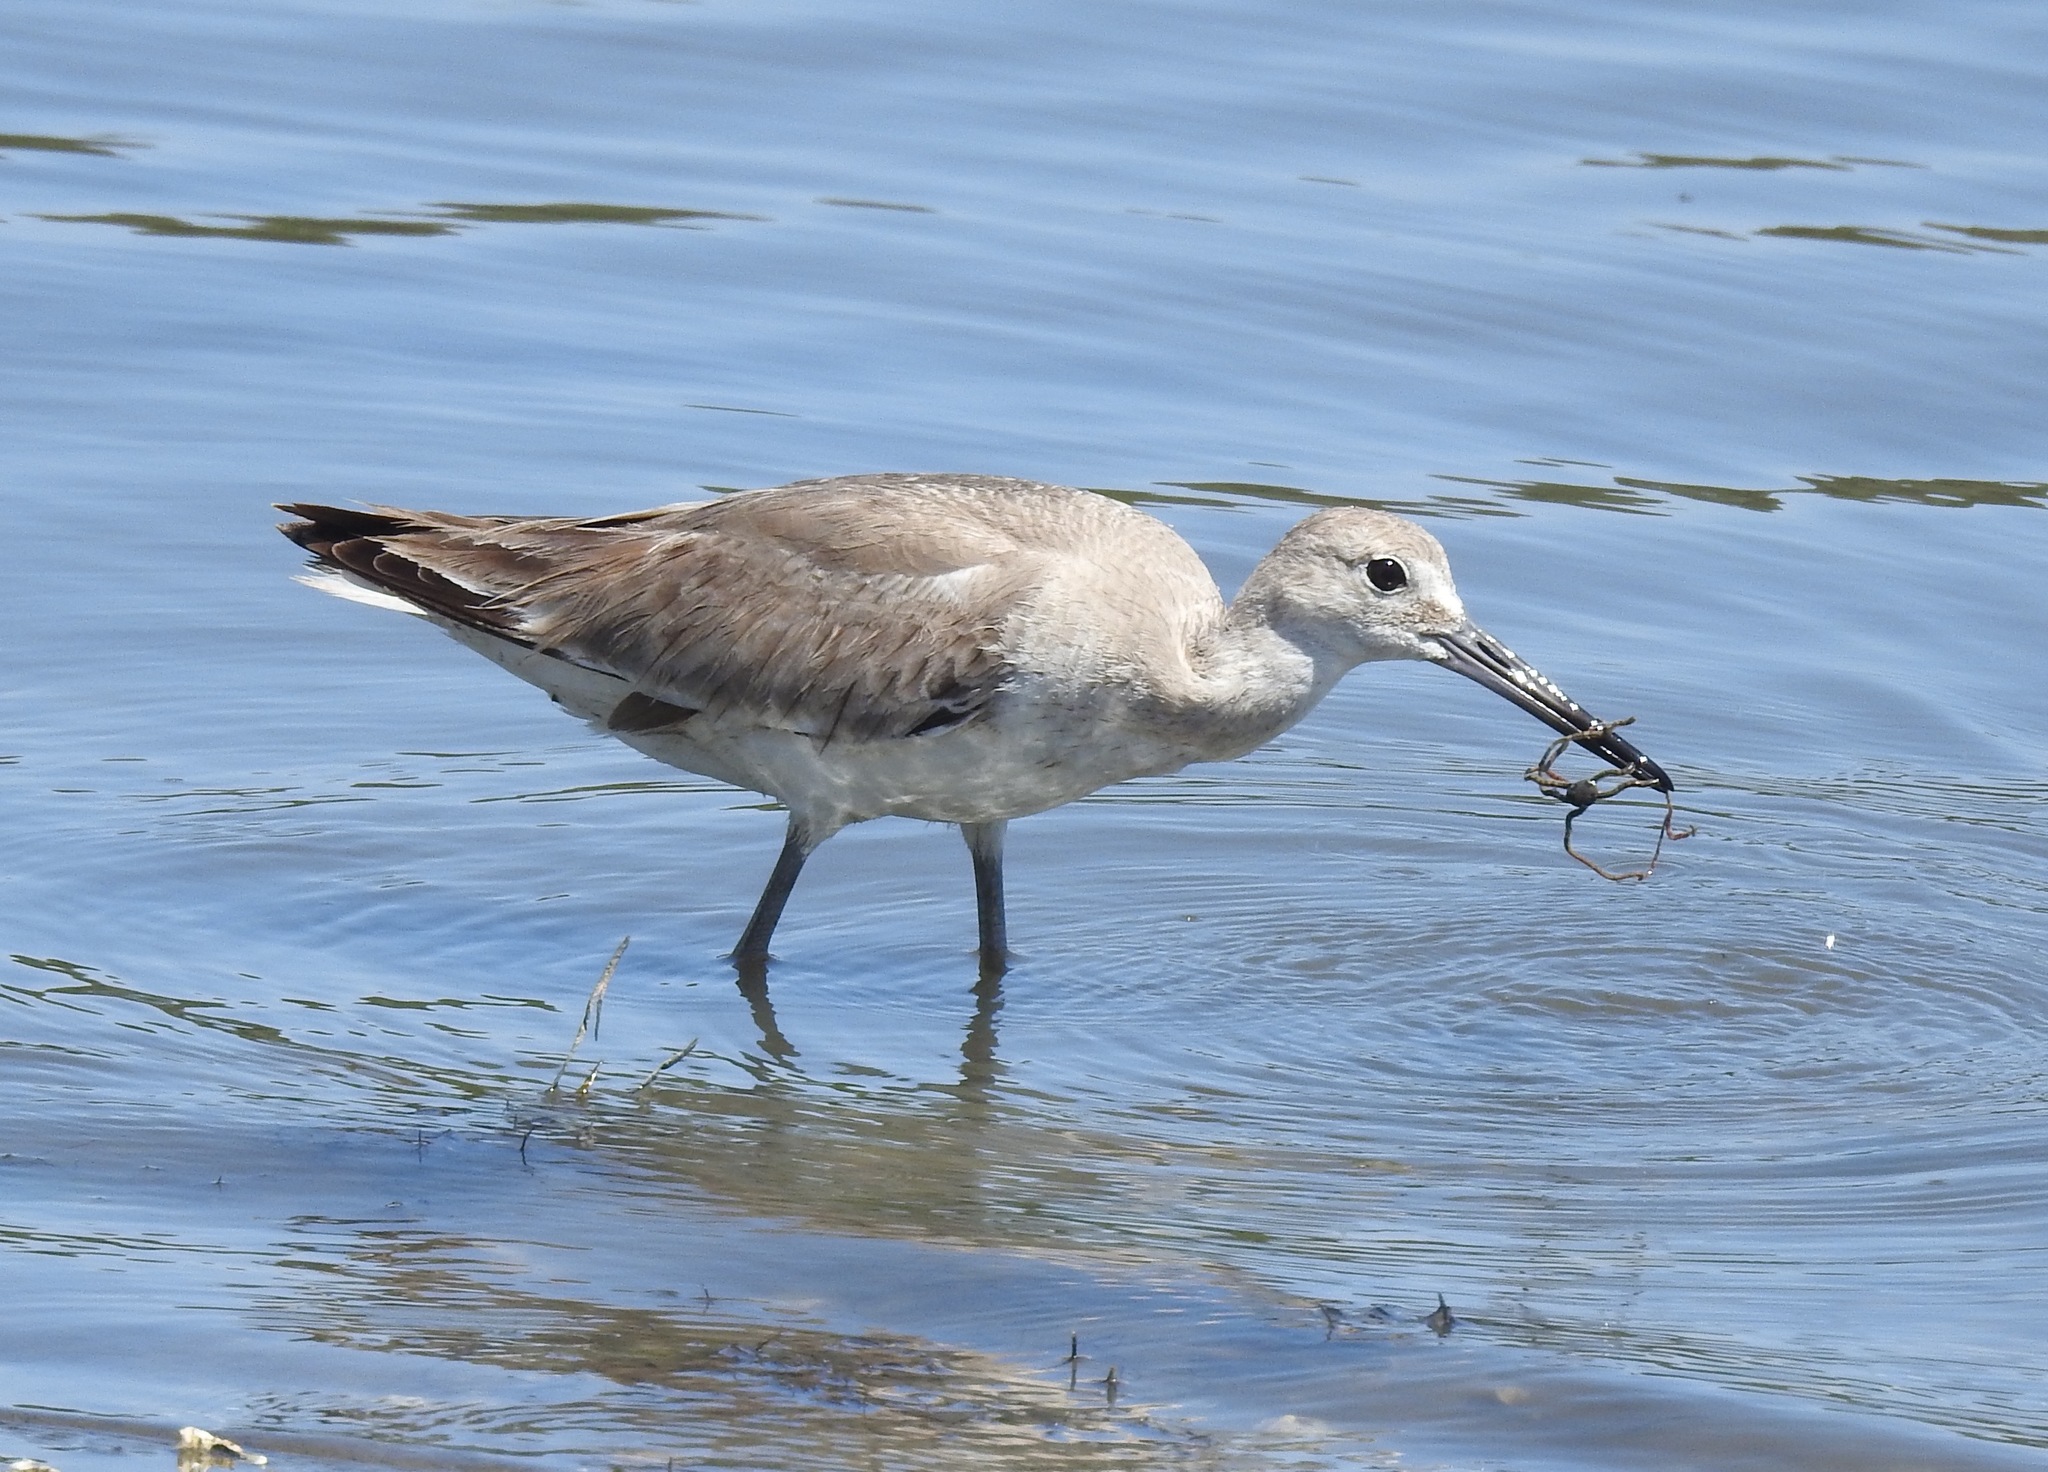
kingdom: Animalia
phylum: Chordata
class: Aves
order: Charadriiformes
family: Scolopacidae
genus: Tringa
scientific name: Tringa semipalmata
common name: Willet
